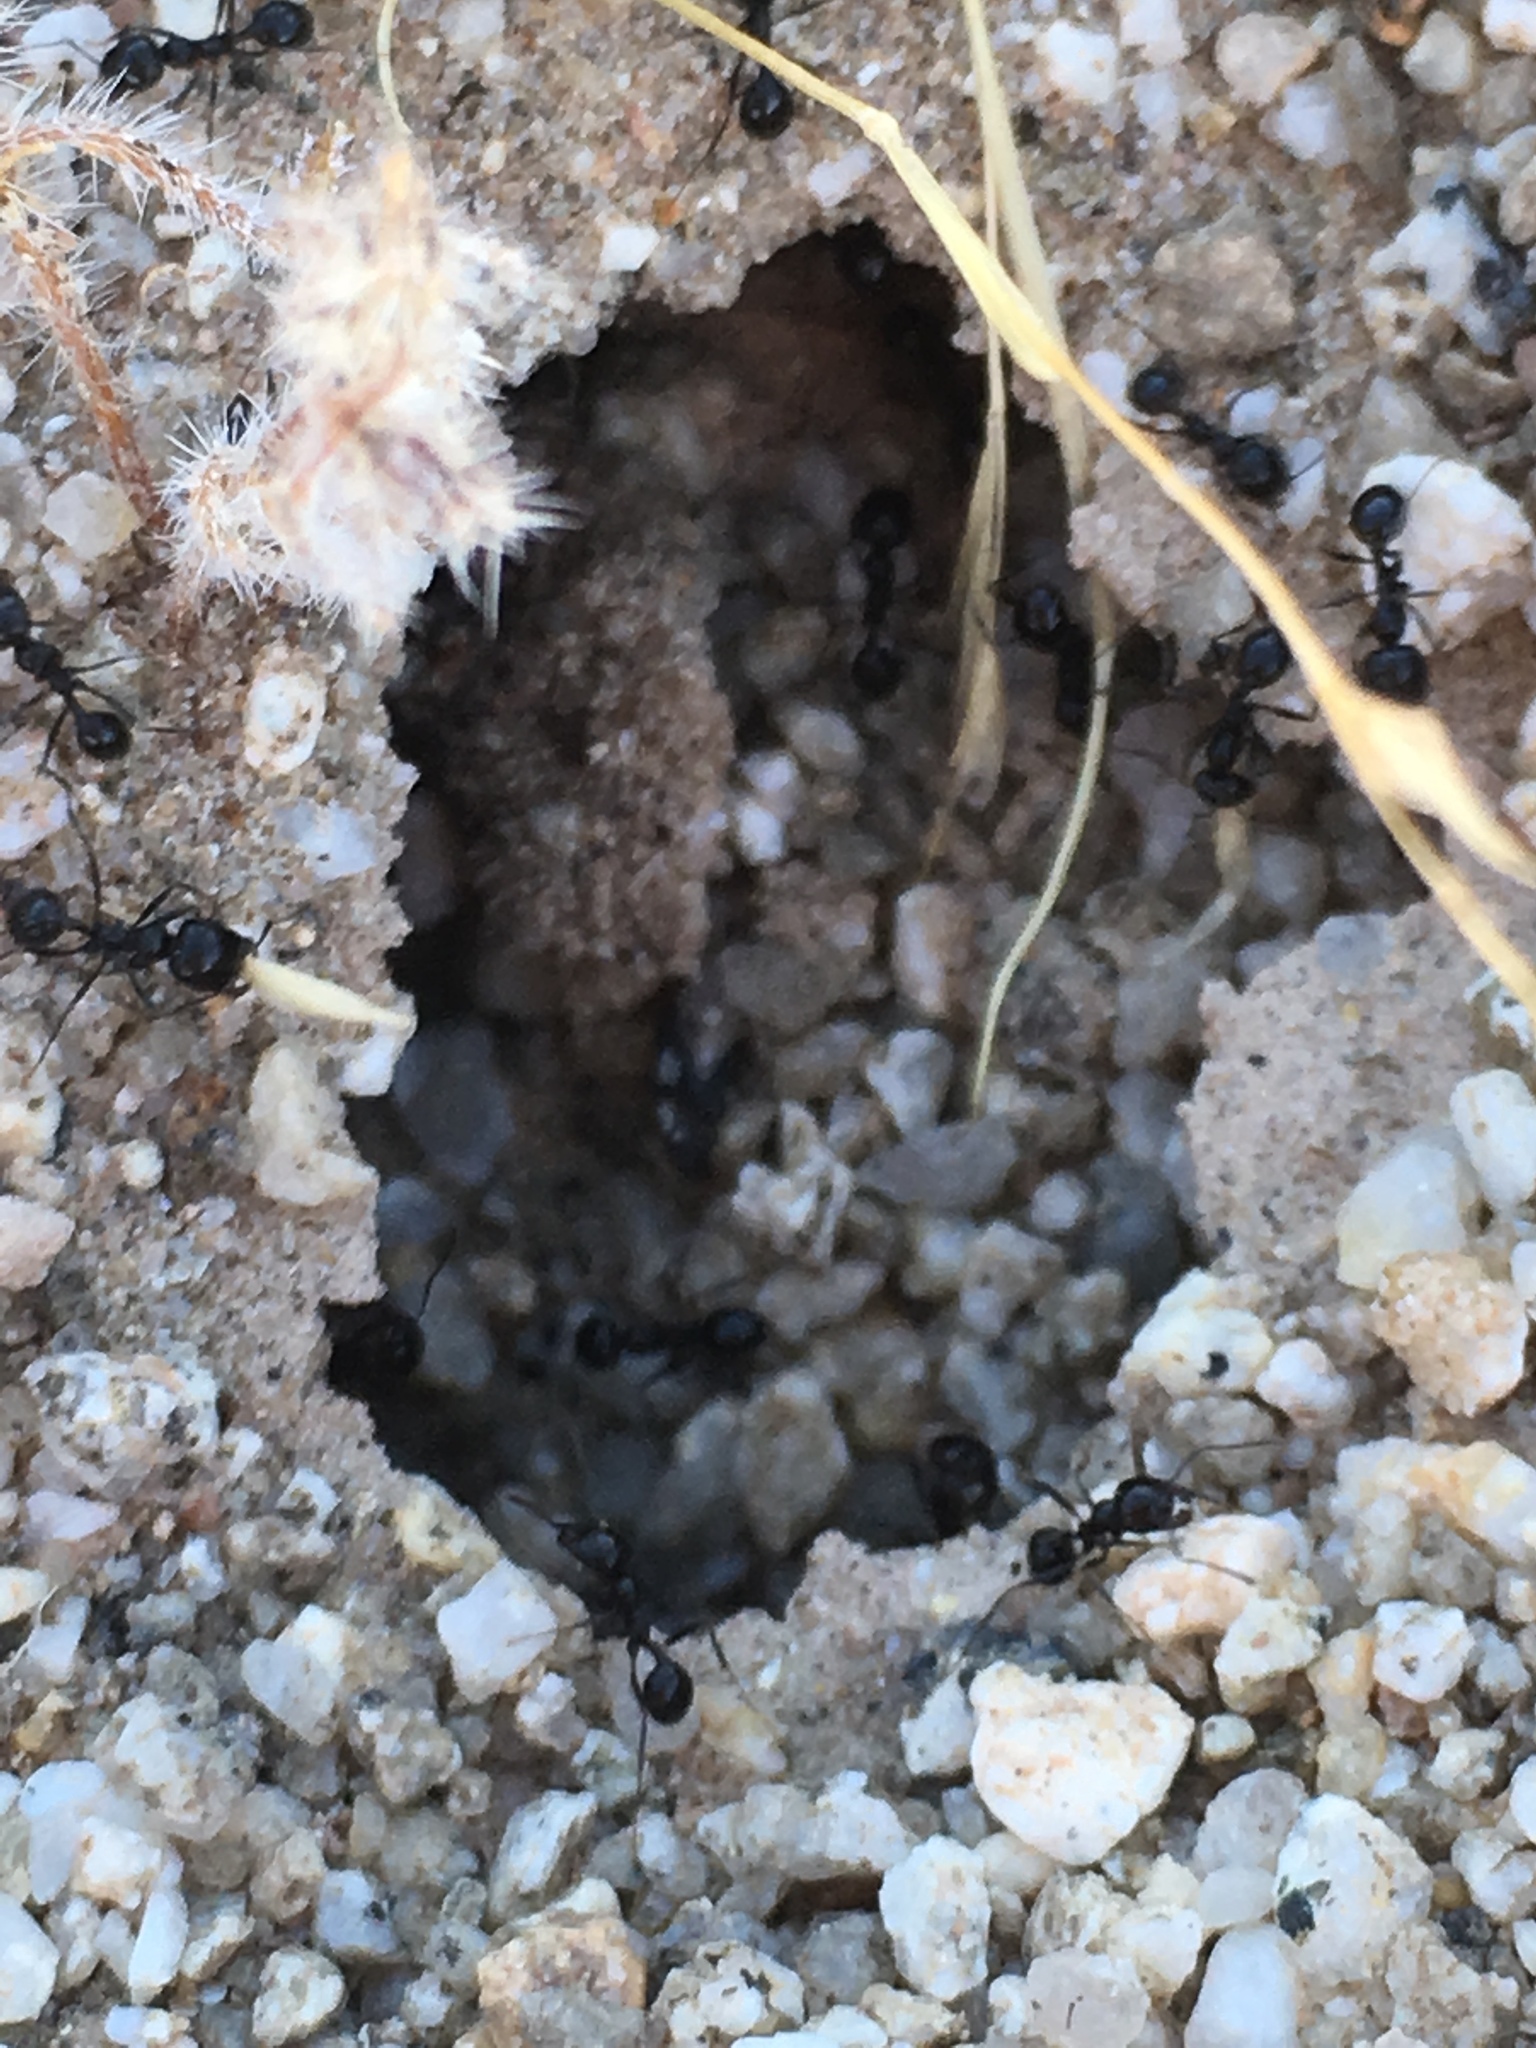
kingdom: Animalia
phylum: Arthropoda
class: Insecta
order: Hymenoptera
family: Formicidae
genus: Messor
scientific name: Messor pergandei
